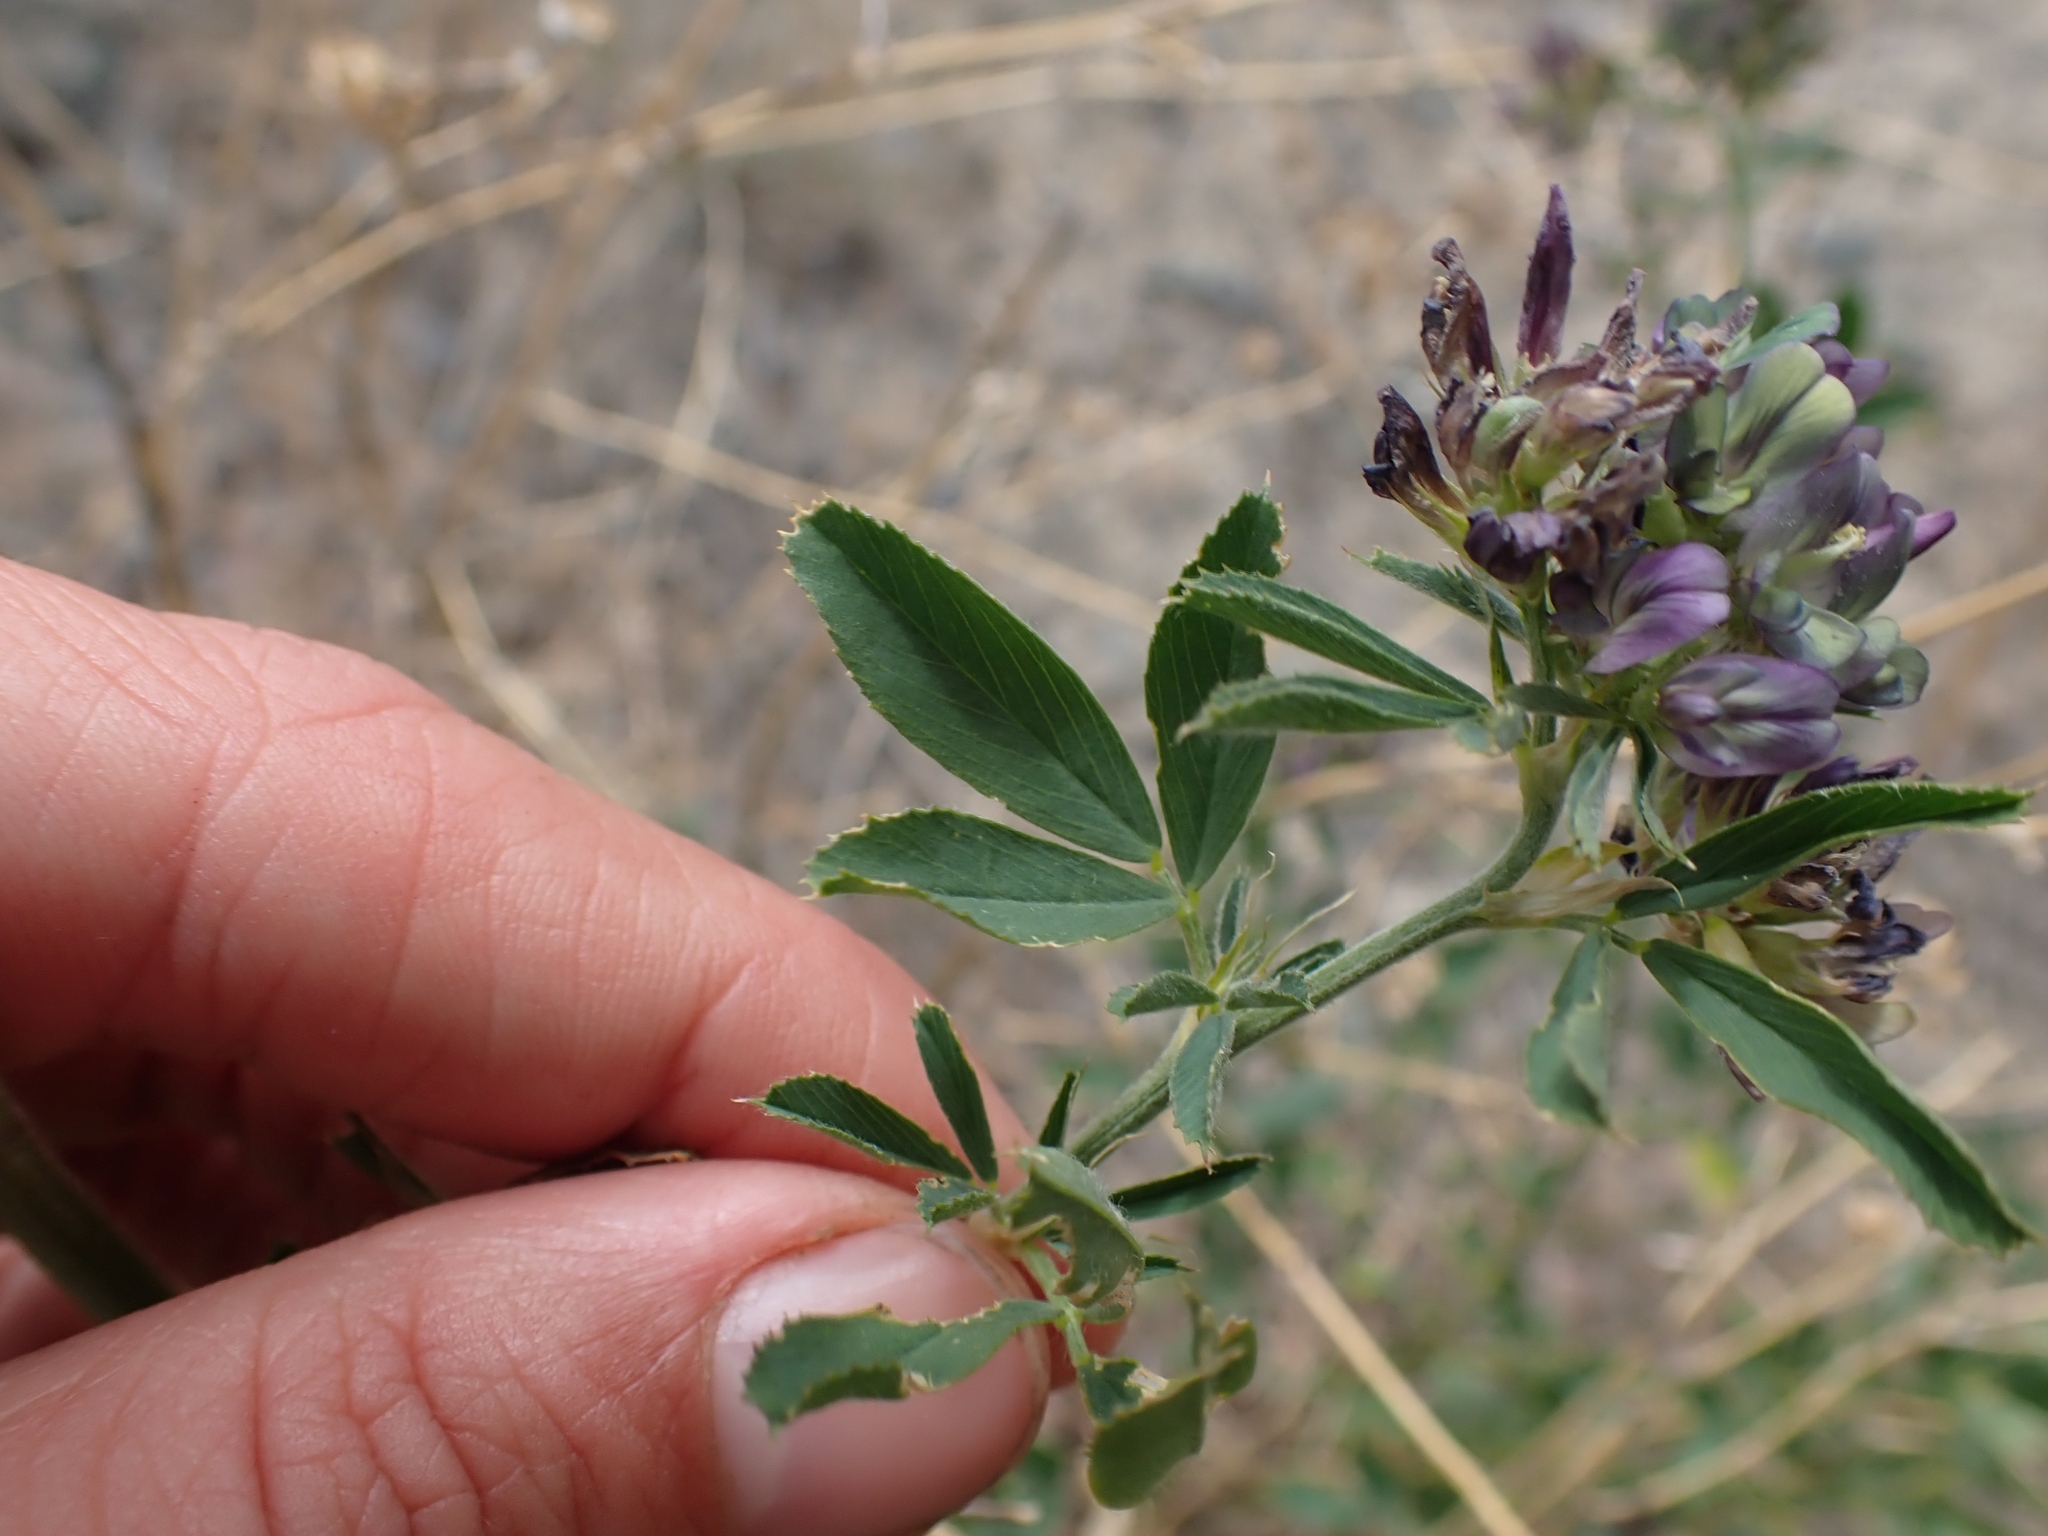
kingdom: Plantae
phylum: Tracheophyta
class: Magnoliopsida
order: Fabales
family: Fabaceae
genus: Medicago
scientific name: Medicago sativa
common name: Alfalfa
